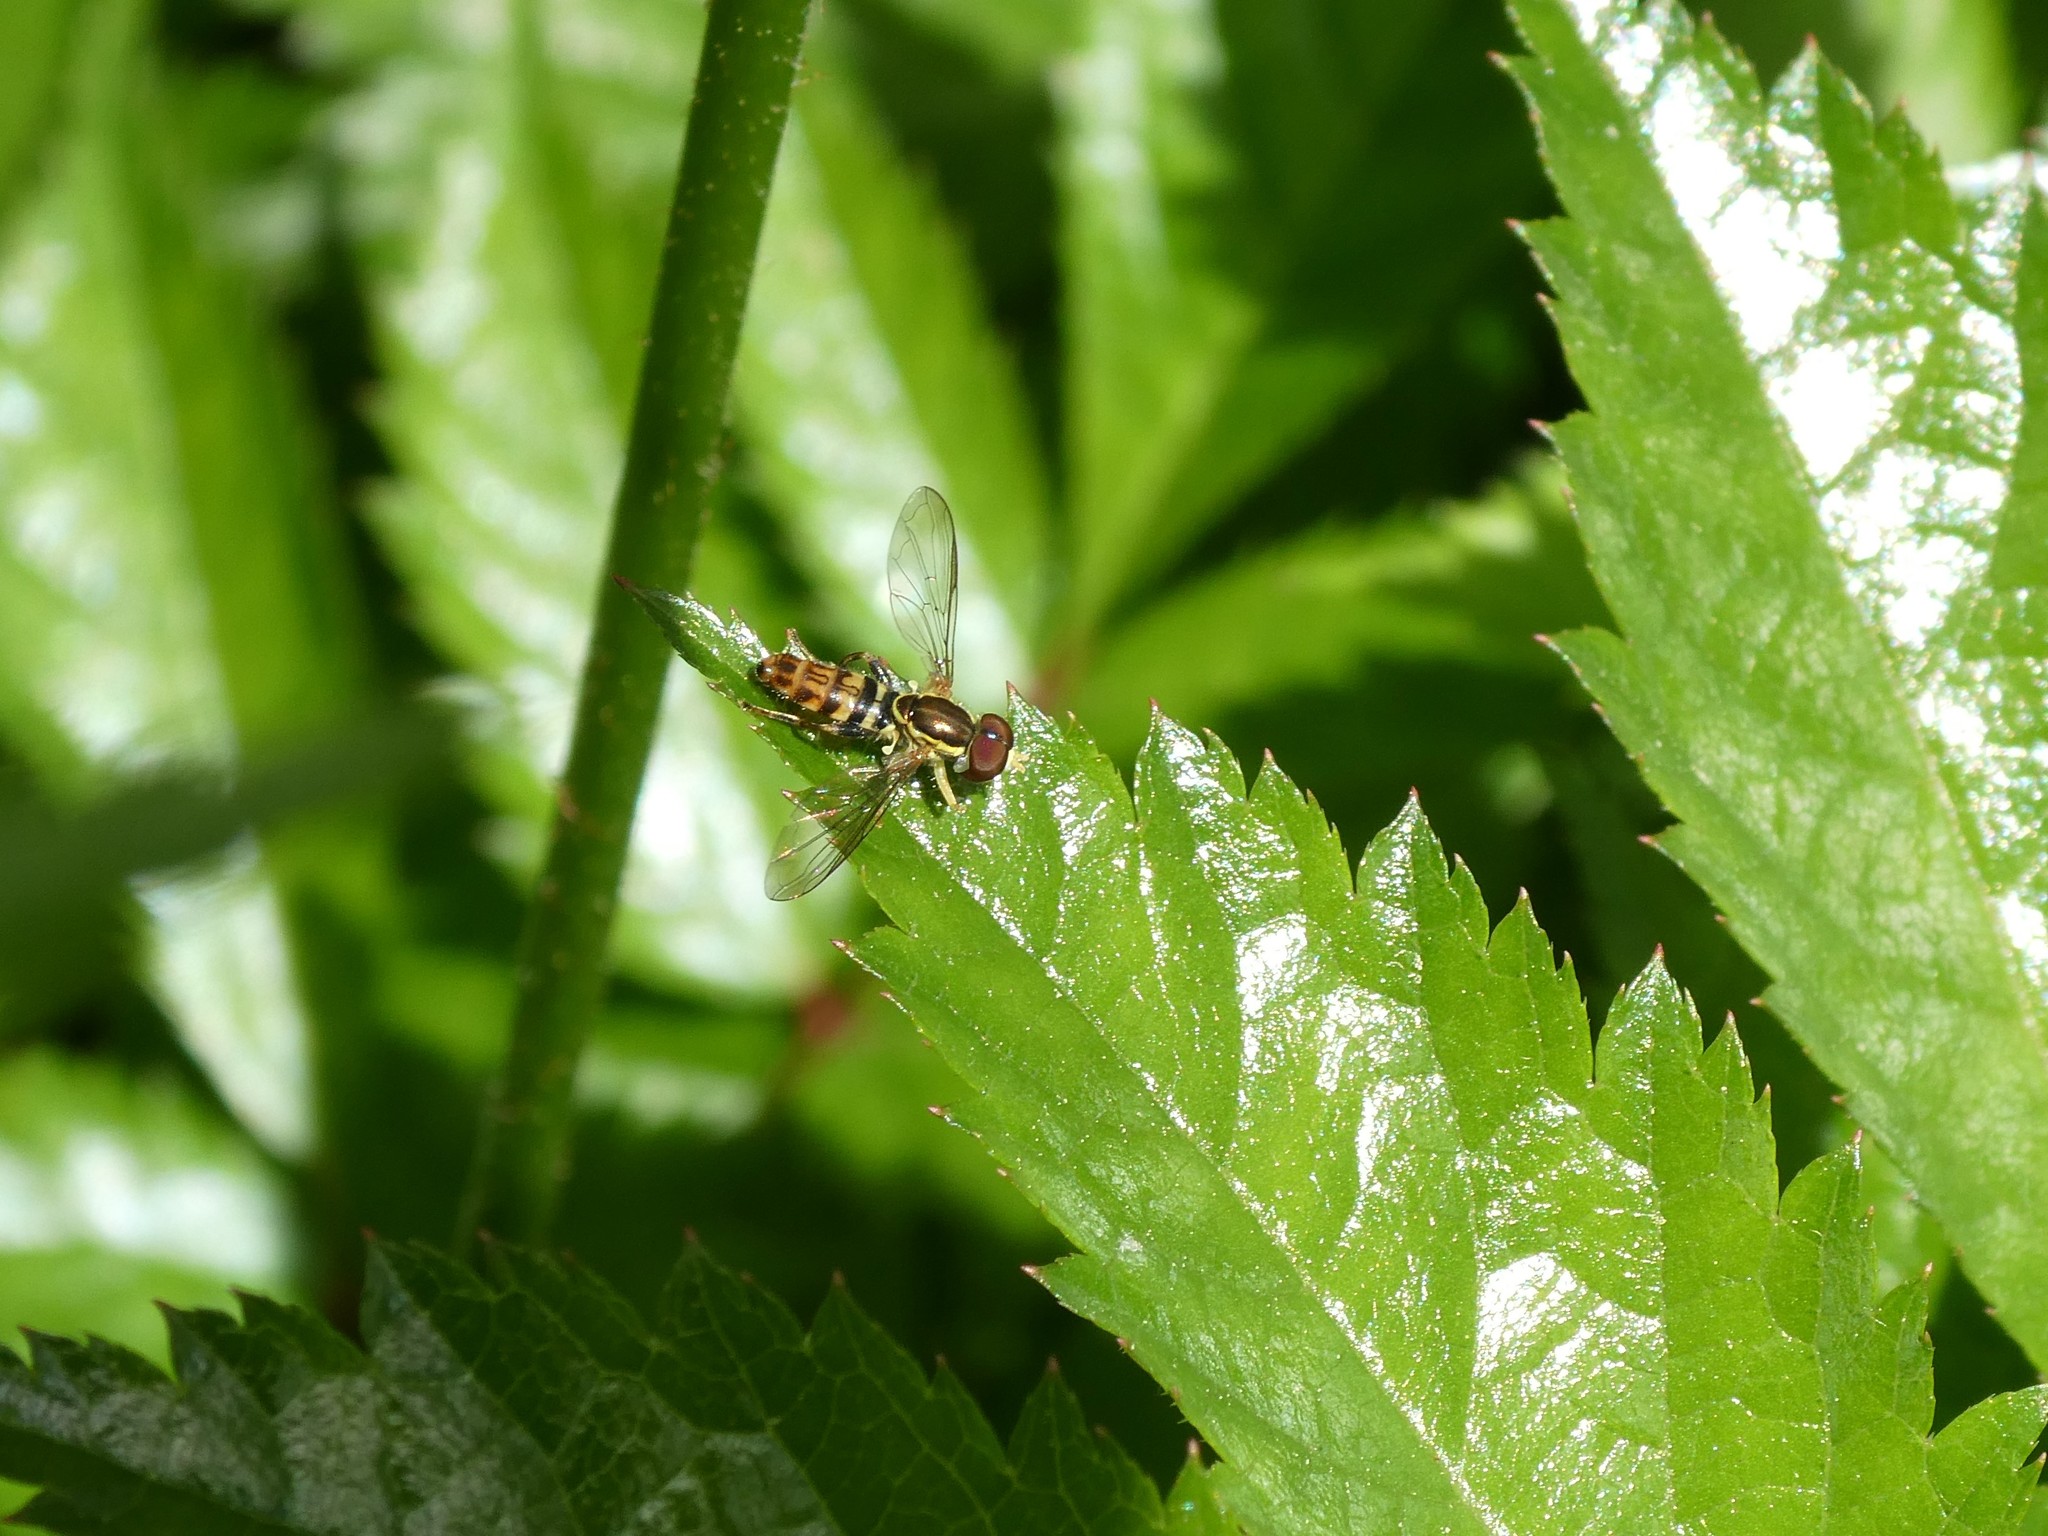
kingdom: Animalia
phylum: Arthropoda
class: Insecta
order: Diptera
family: Syrphidae
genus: Toxomerus
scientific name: Toxomerus geminatus
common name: Eastern calligrapher
